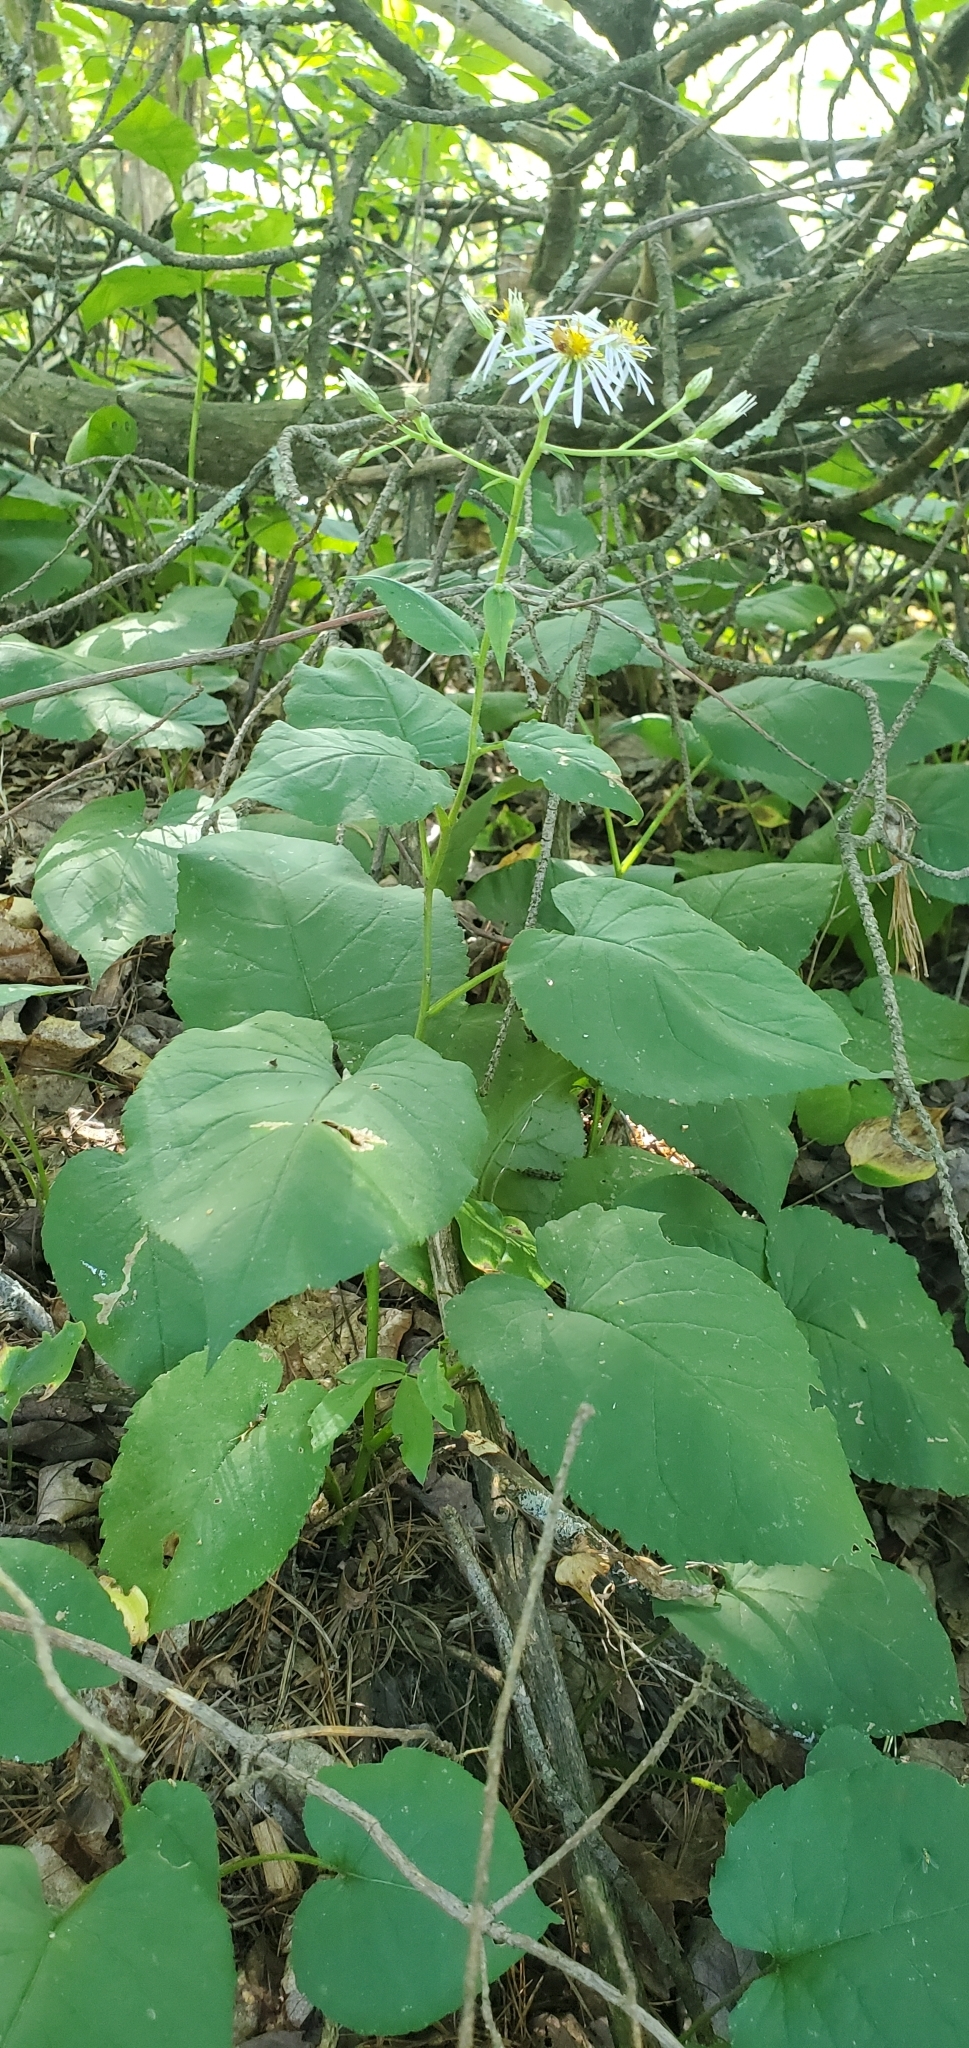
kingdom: Plantae
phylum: Tracheophyta
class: Magnoliopsida
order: Asterales
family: Asteraceae
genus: Eurybia
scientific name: Eurybia macrophylla
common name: Big-leaved aster
